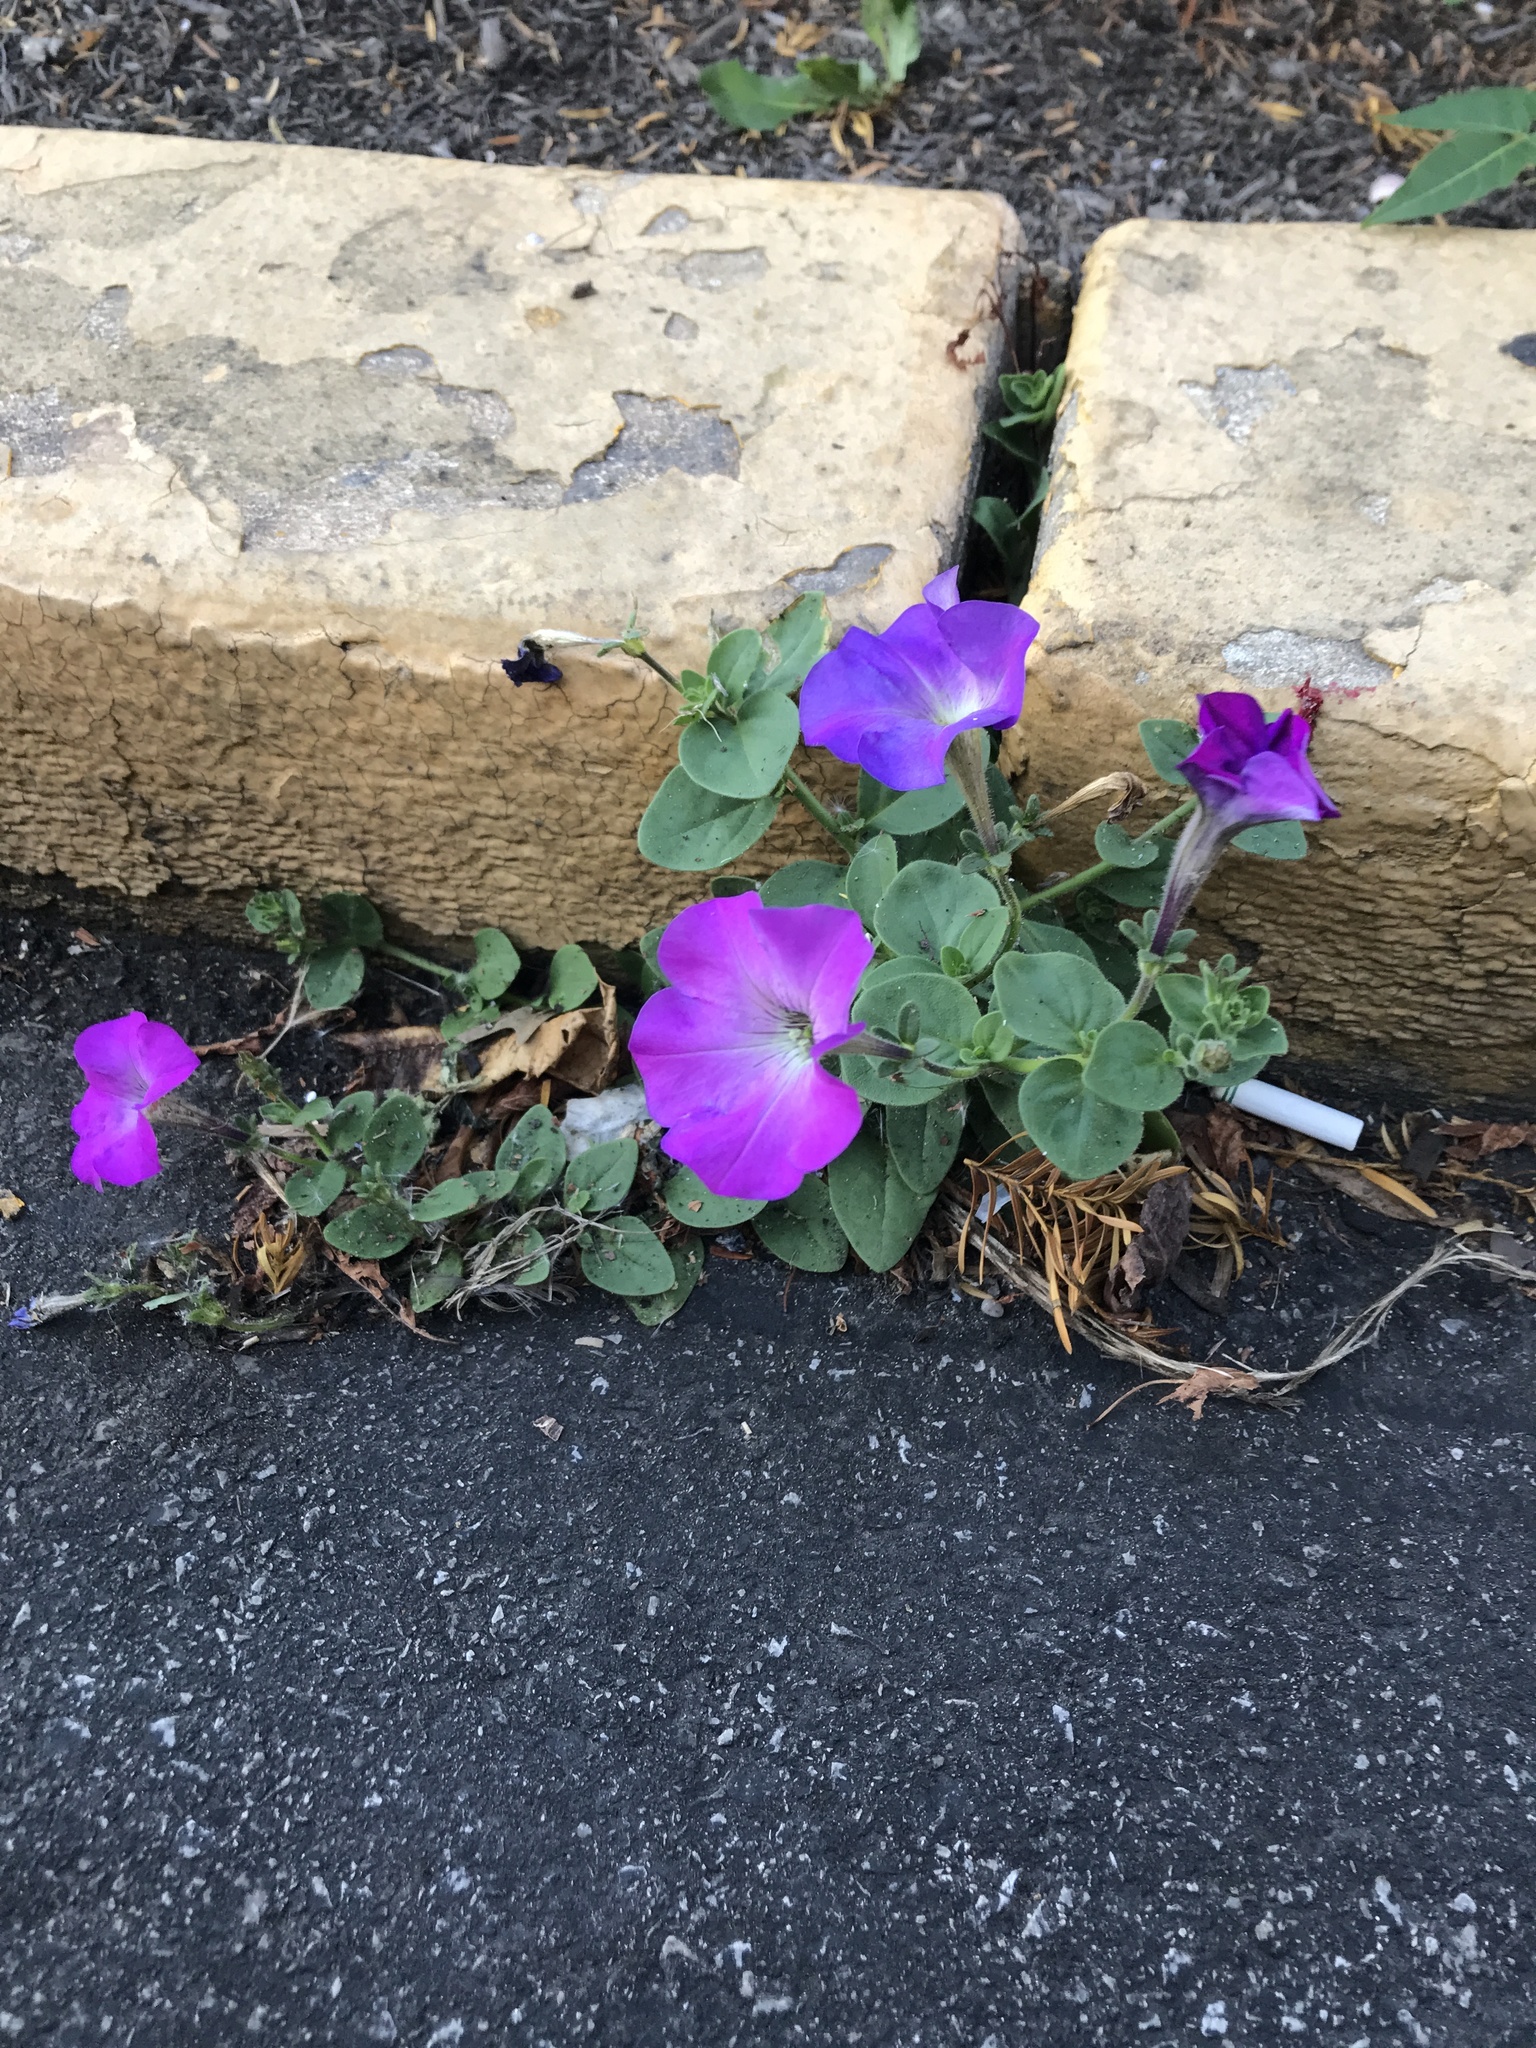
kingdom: Plantae
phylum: Tracheophyta
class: Magnoliopsida
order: Solanales
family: Solanaceae
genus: Petunia
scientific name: Petunia atkinsiana
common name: Petunia
